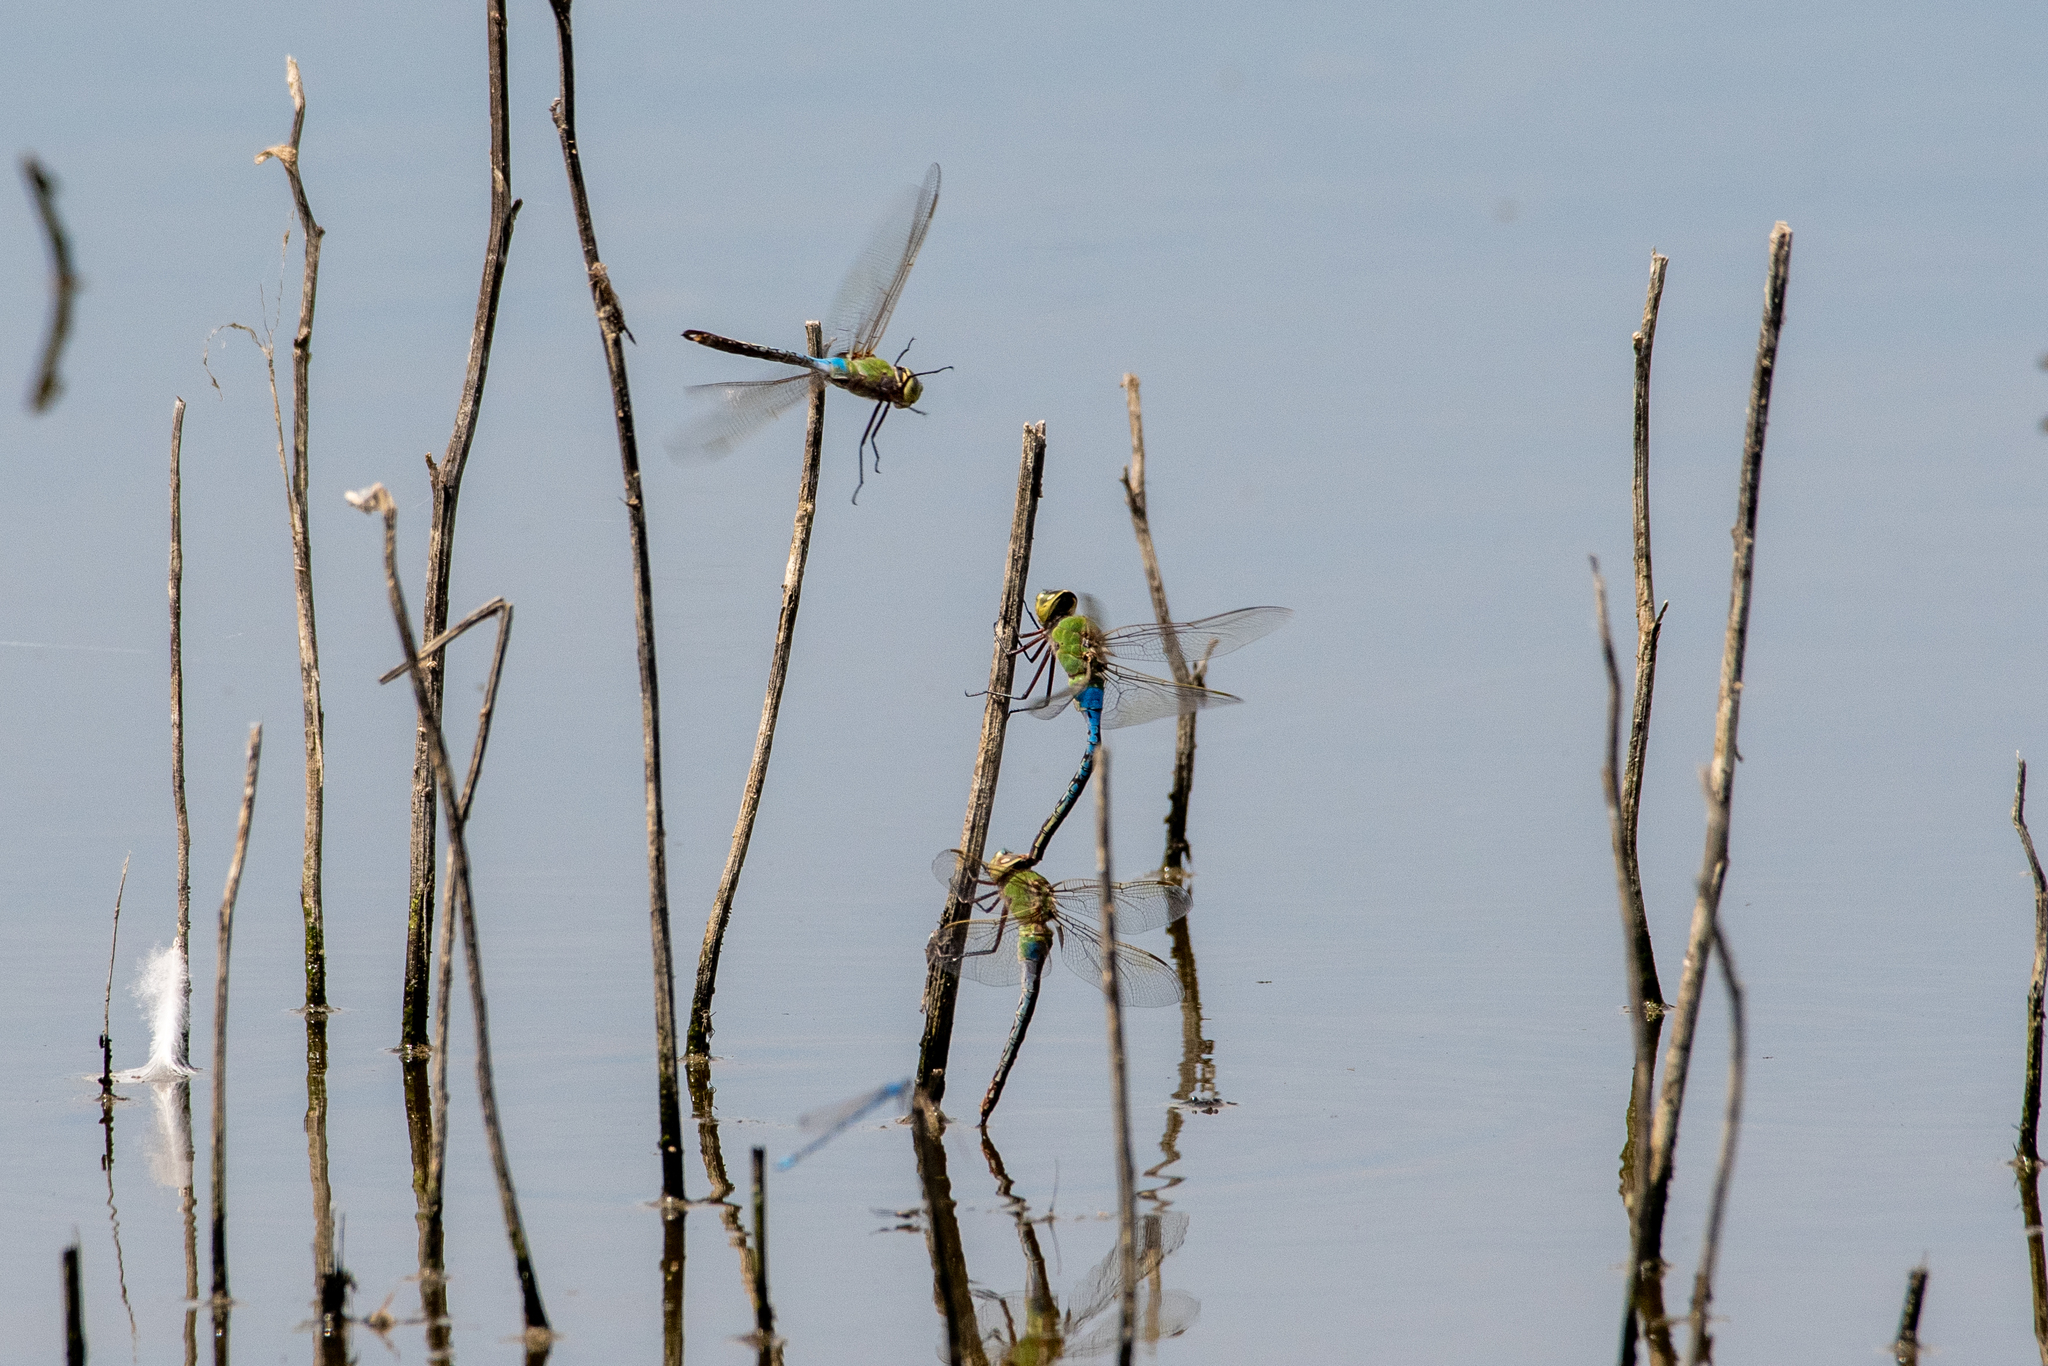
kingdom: Animalia
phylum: Arthropoda
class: Insecta
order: Odonata
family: Aeshnidae
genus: Anax
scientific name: Anax junius
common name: Common green darner
